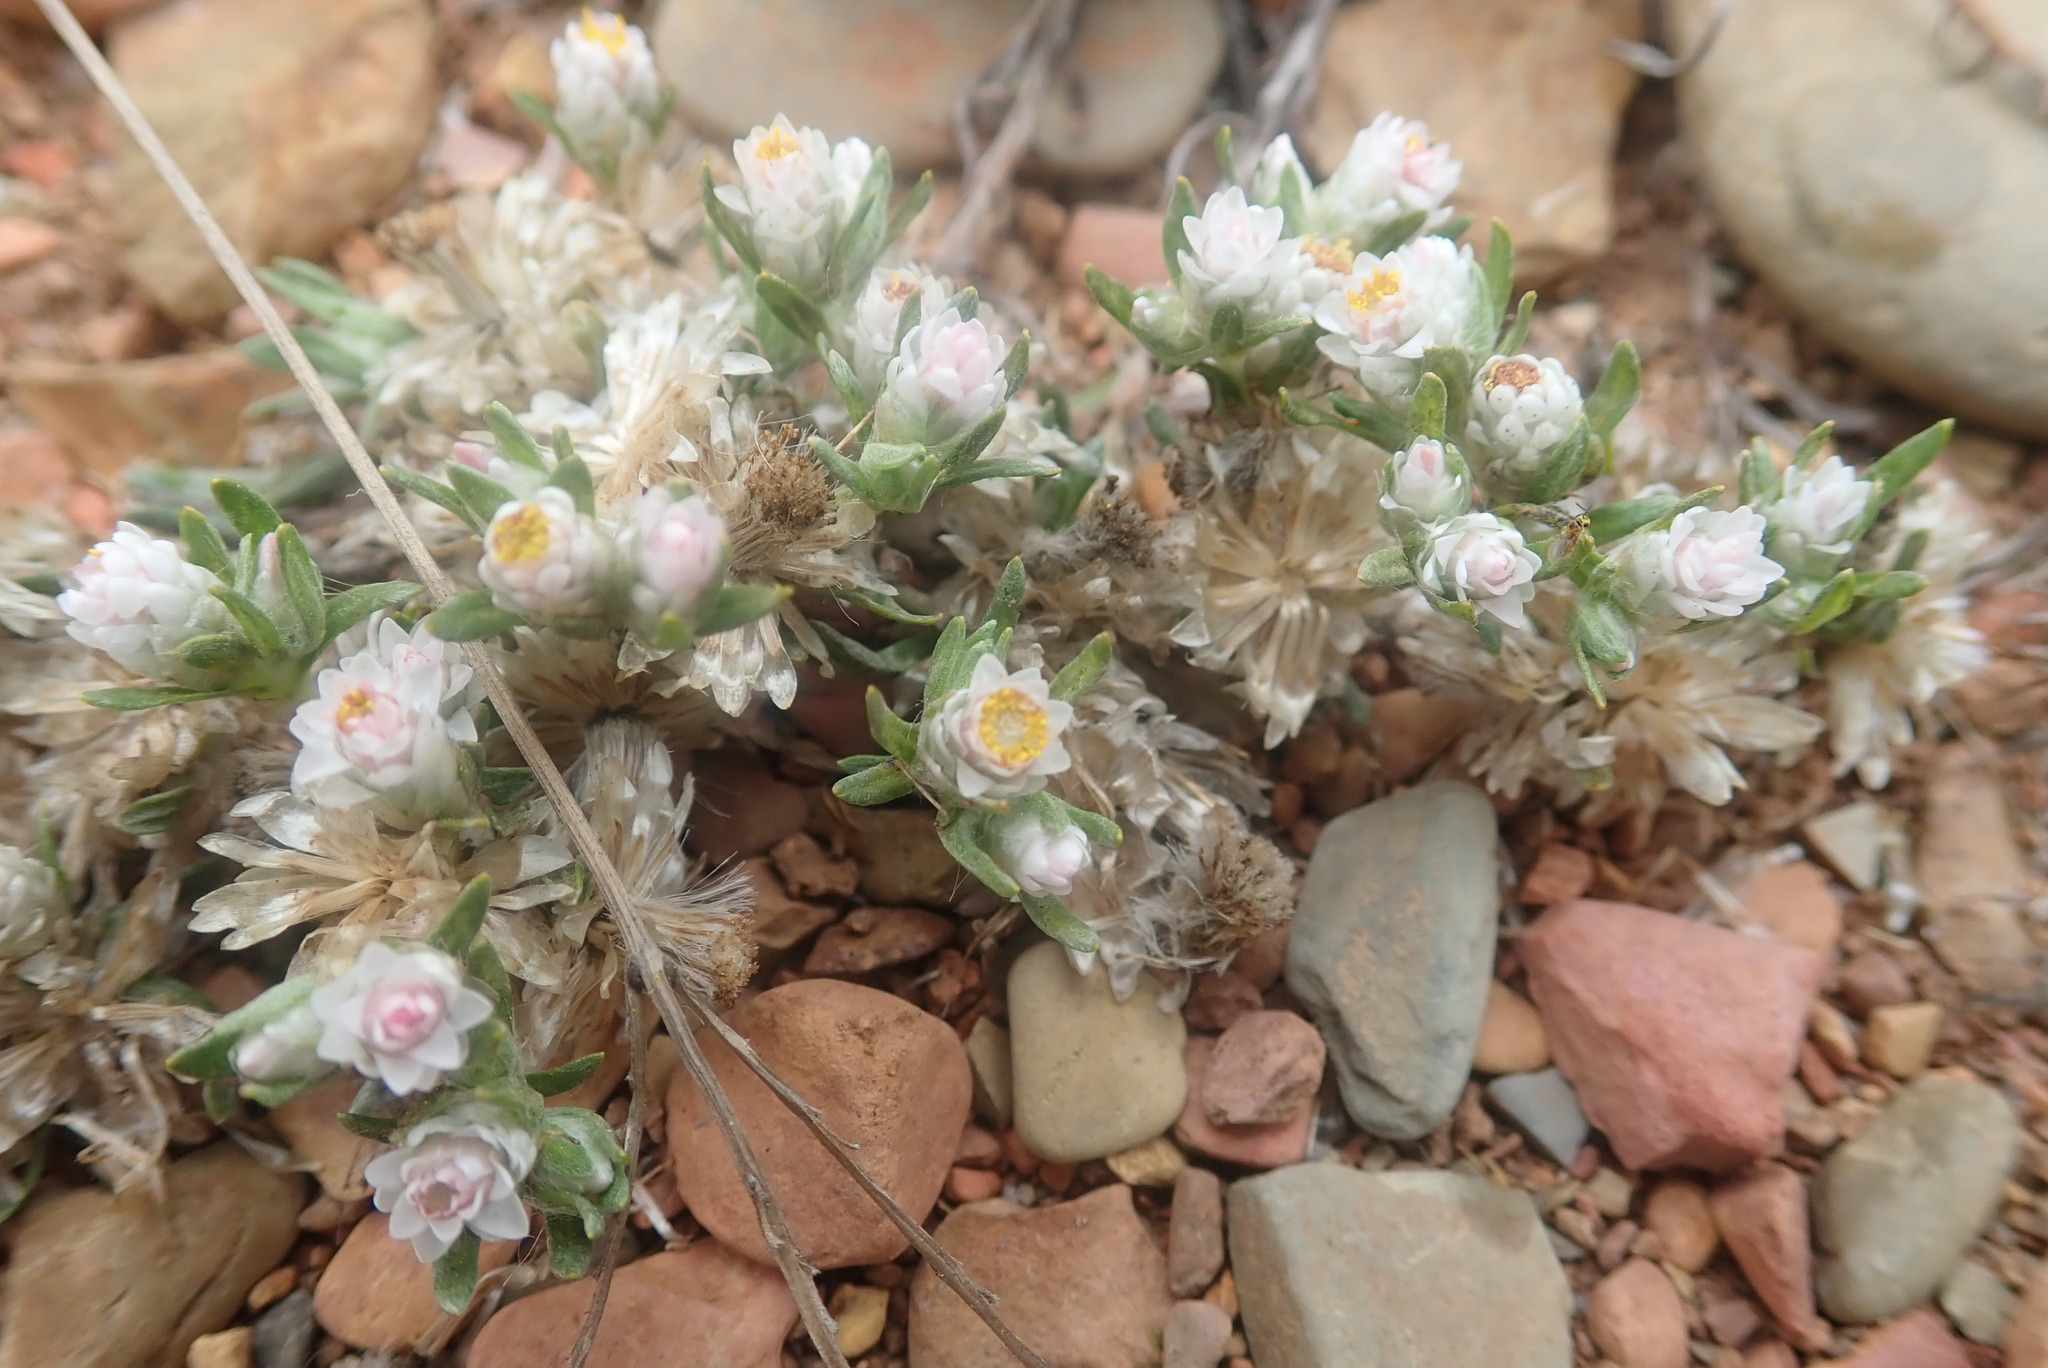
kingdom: Plantae
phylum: Tracheophyta
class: Magnoliopsida
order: Asterales
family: Asteraceae
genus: Helichrysum
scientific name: Helichrysum argyrosphaerum
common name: Wild everlasting
